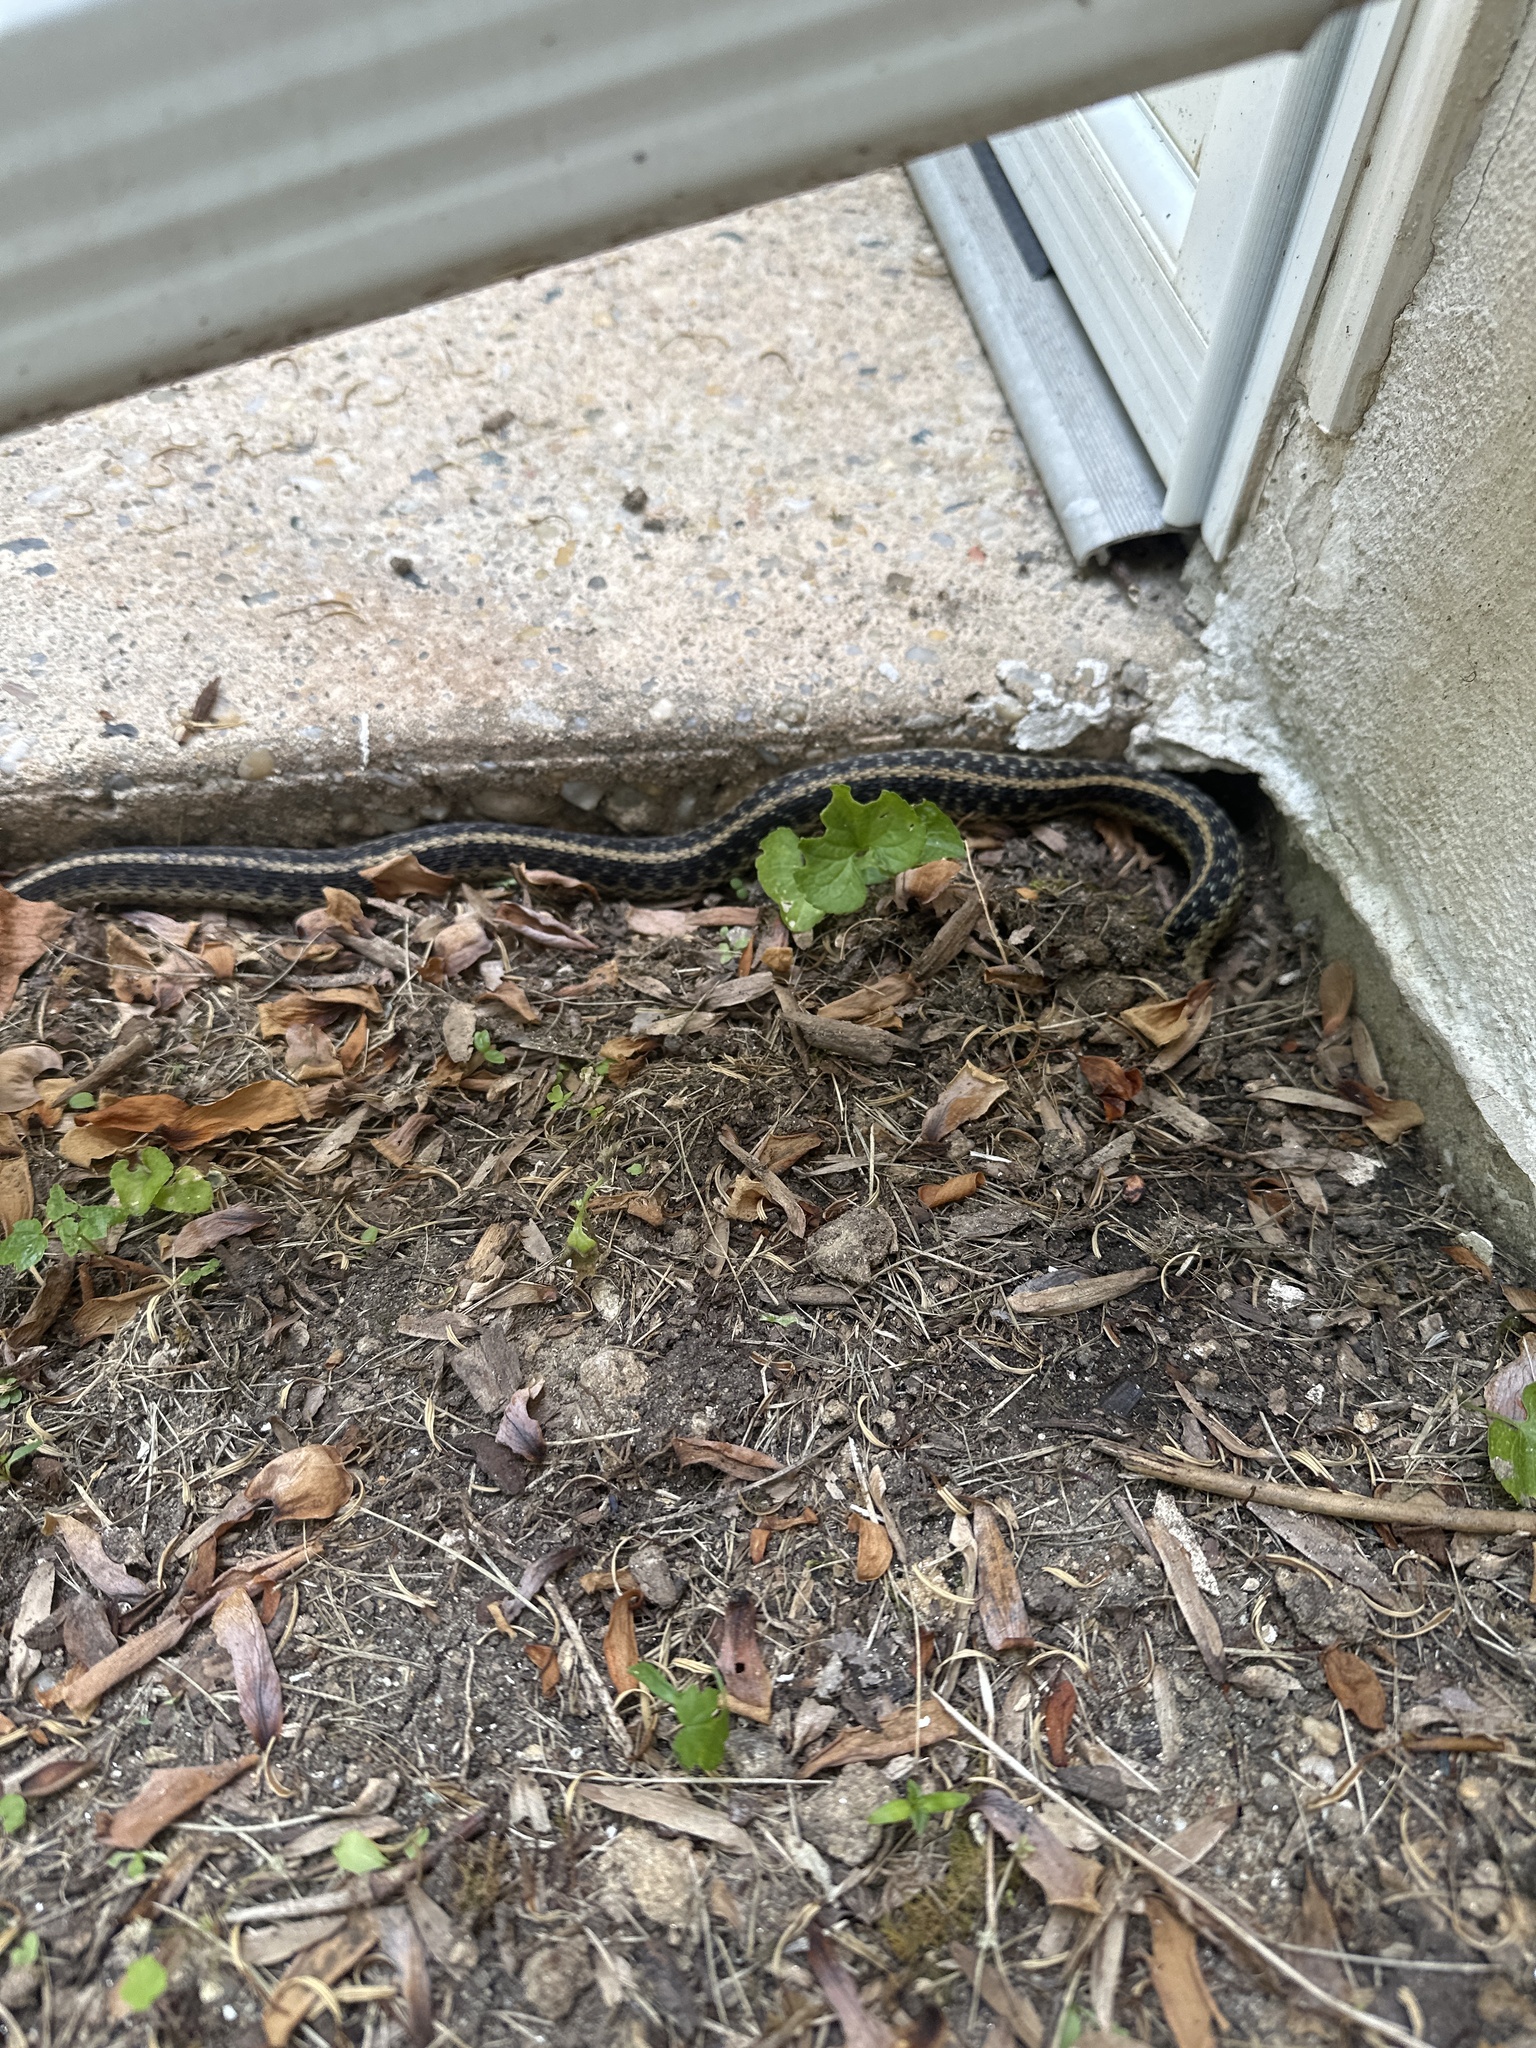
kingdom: Animalia
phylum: Chordata
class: Squamata
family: Colubridae
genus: Thamnophis
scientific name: Thamnophis sirtalis
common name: Common garter snake
